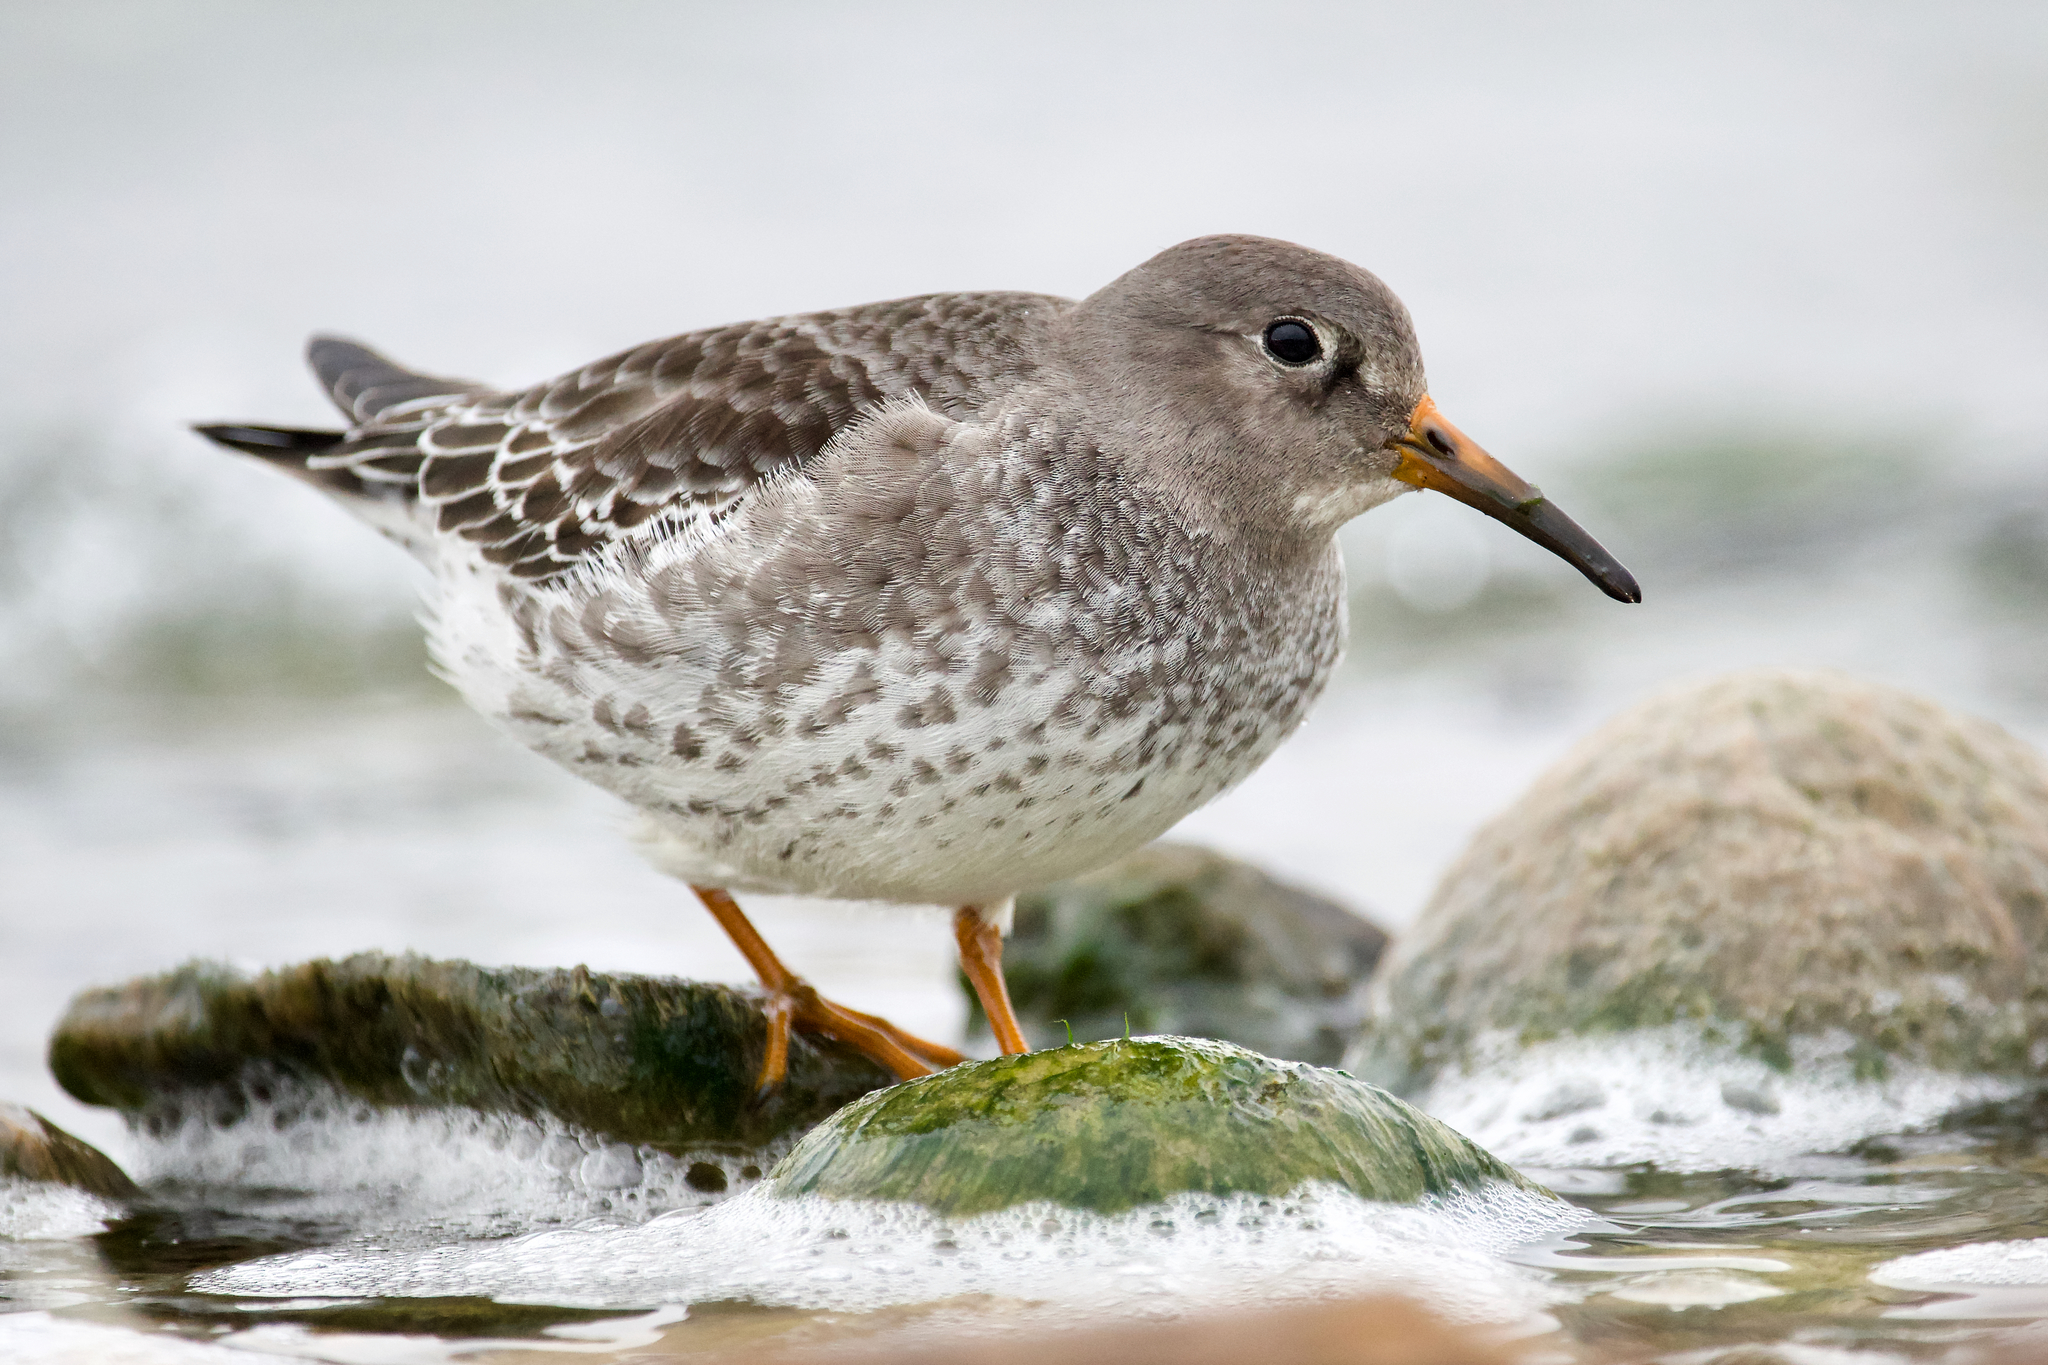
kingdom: Animalia
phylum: Chordata
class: Aves
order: Charadriiformes
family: Scolopacidae
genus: Calidris
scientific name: Calidris maritima
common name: Purple sandpiper
